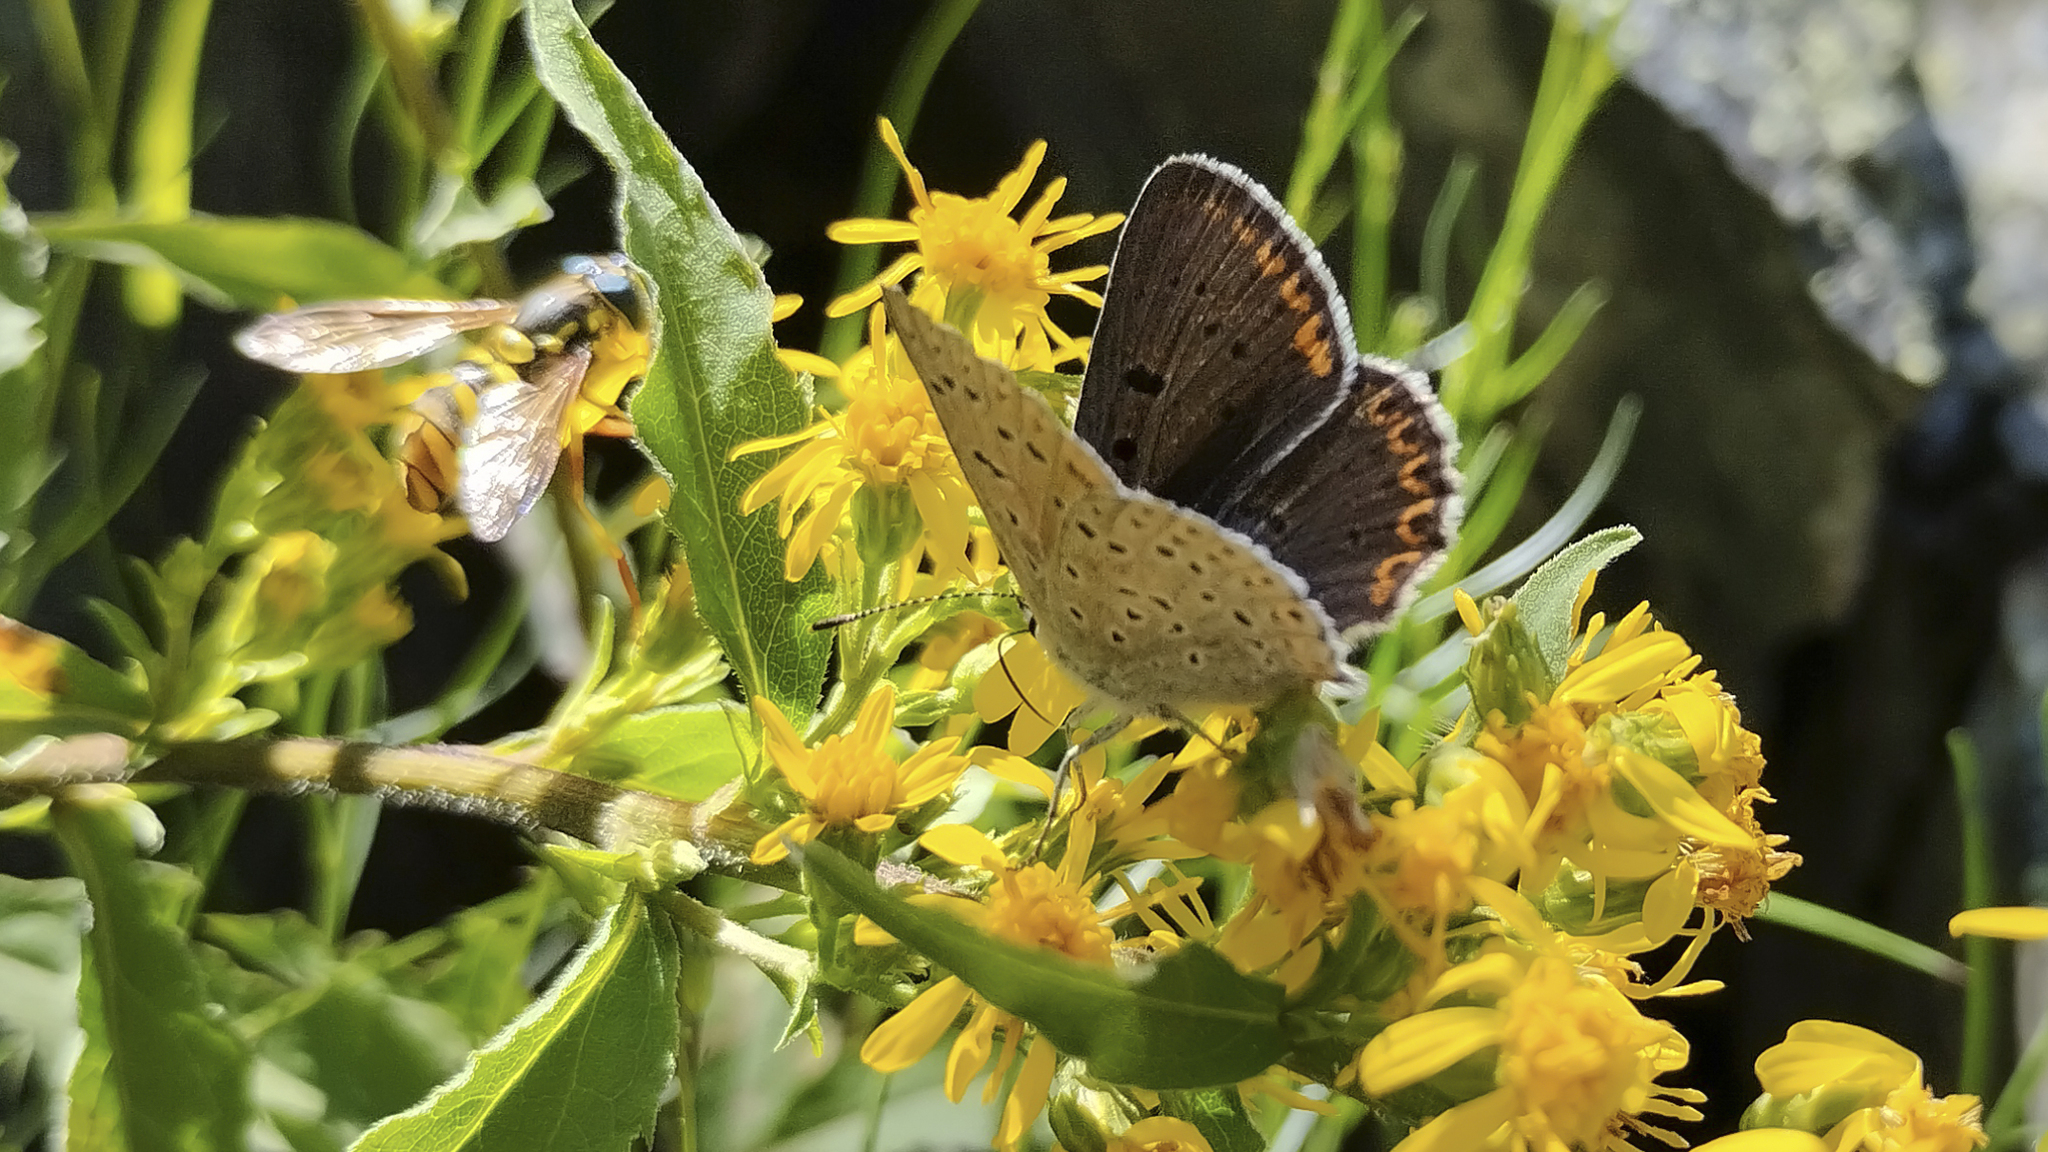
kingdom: Animalia
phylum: Arthropoda
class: Insecta
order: Lepidoptera
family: Lycaenidae
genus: Loweia
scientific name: Loweia tityrus
